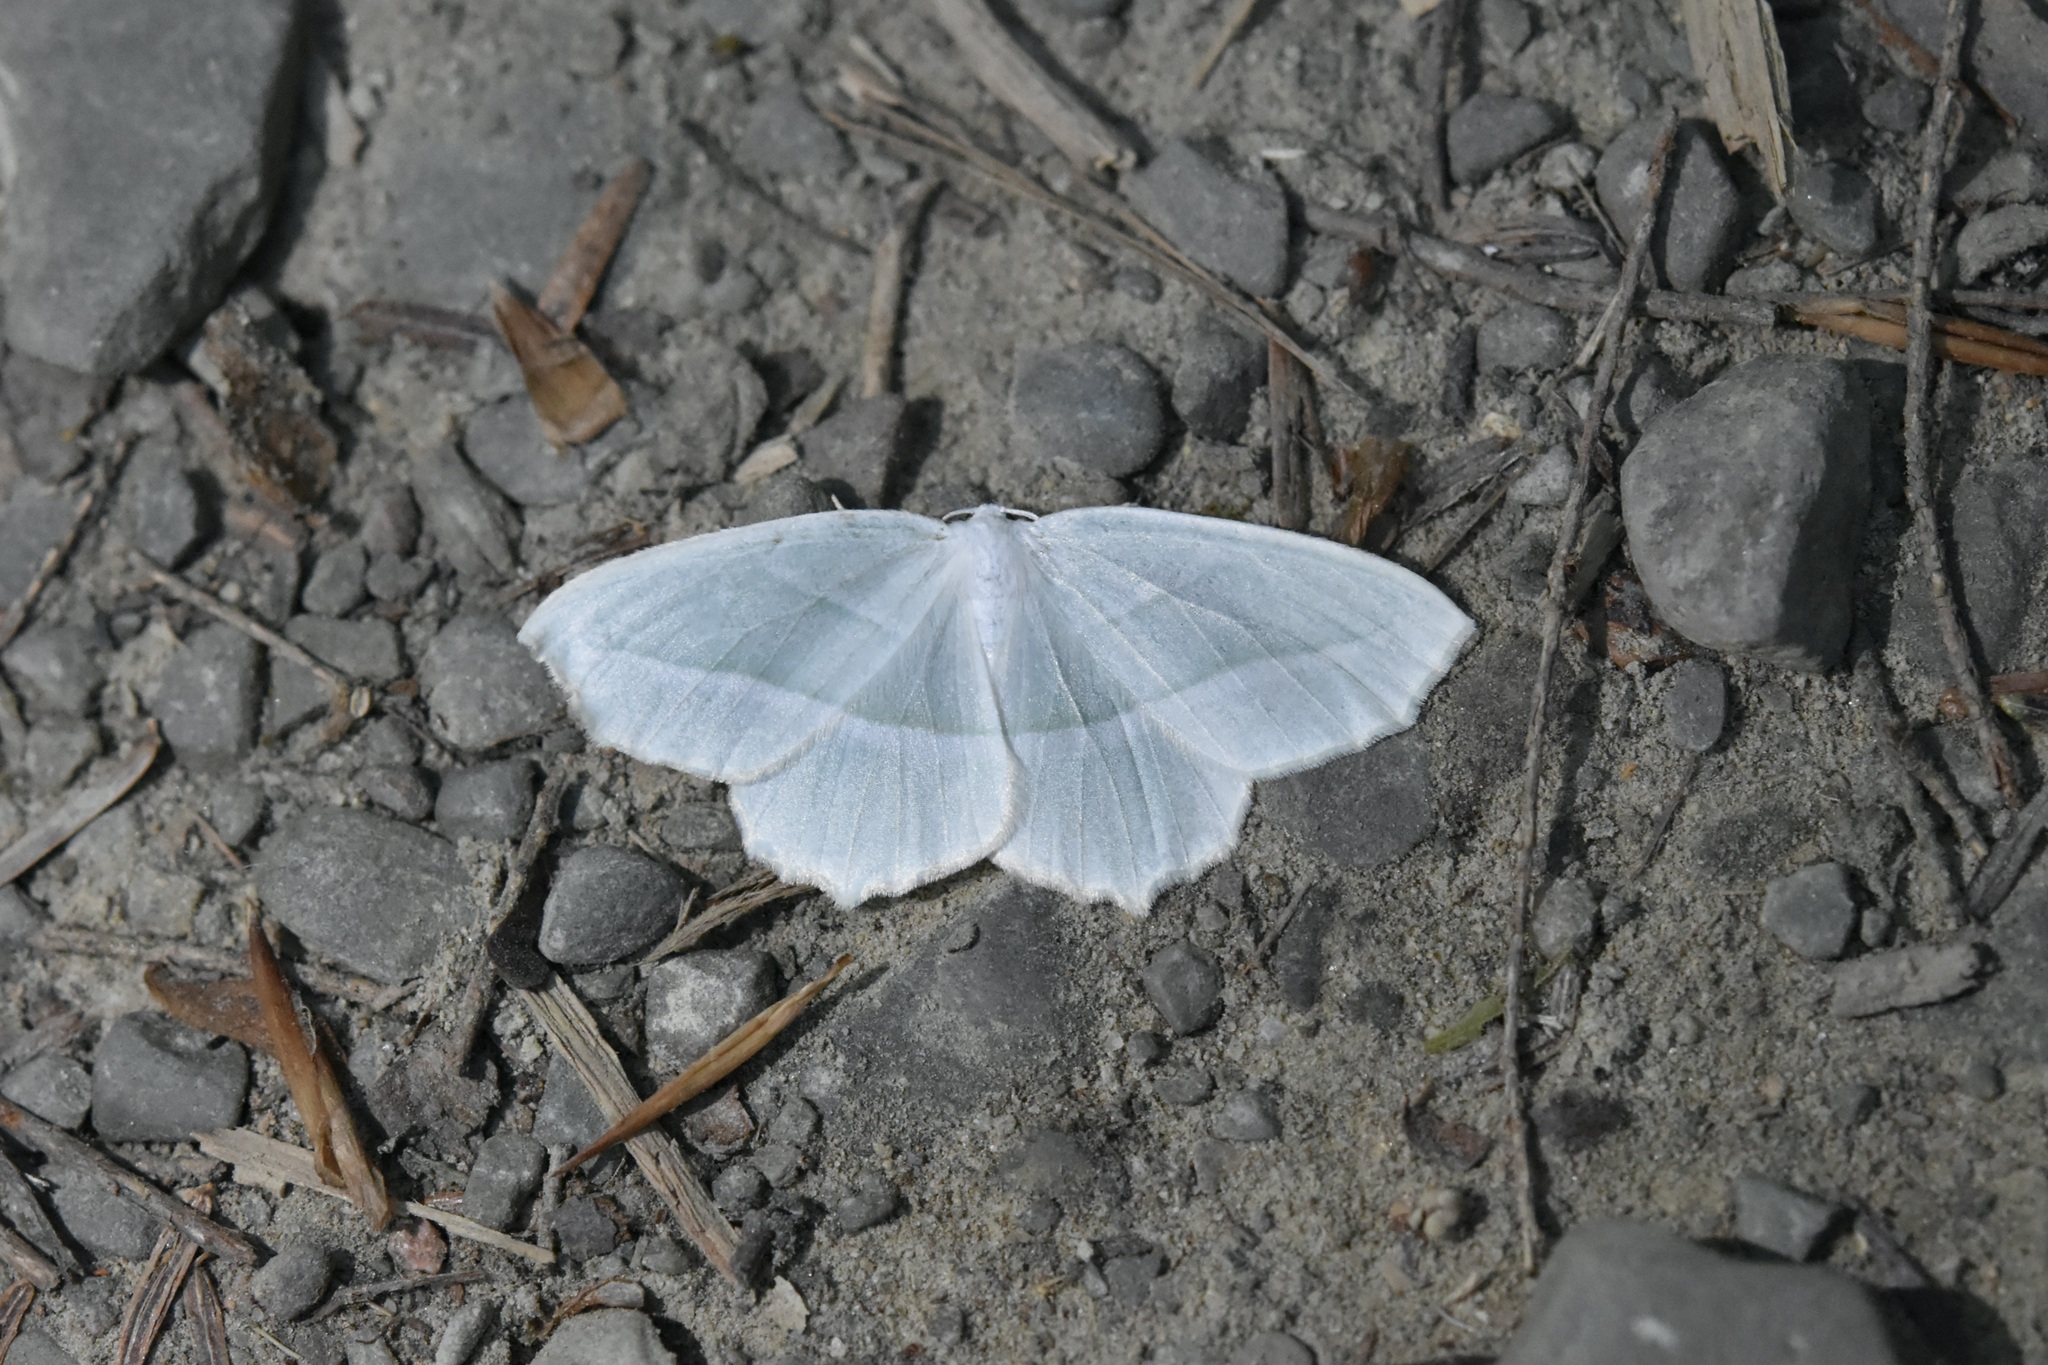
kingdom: Animalia
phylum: Arthropoda
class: Insecta
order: Lepidoptera
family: Geometridae
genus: Campaea
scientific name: Campaea perlata
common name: Fringed looper
